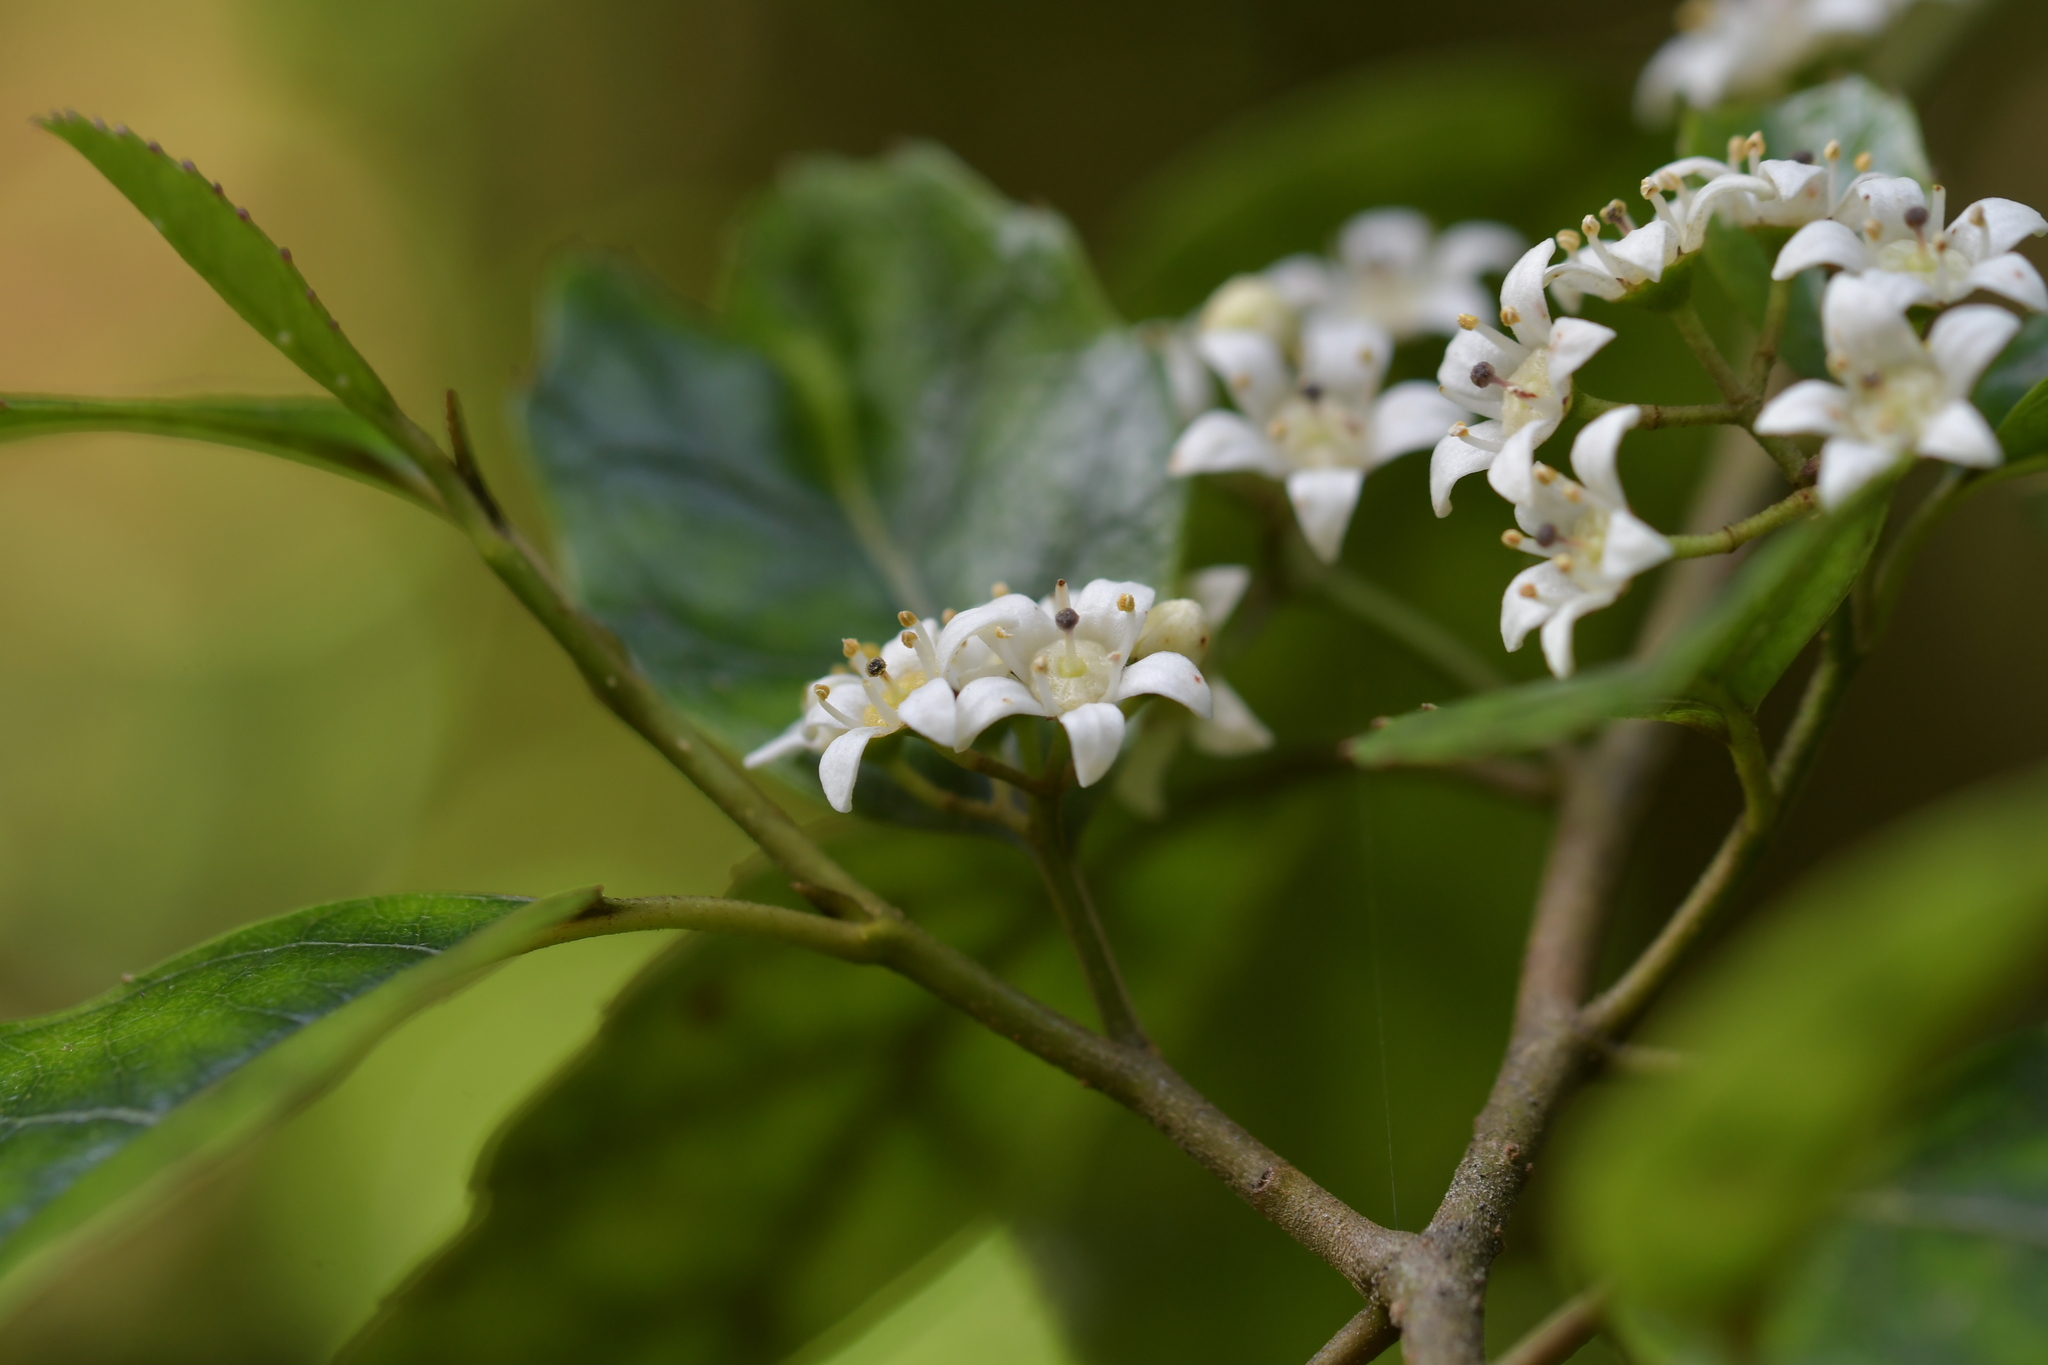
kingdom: Plantae
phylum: Tracheophyta
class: Magnoliopsida
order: Asterales
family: Rousseaceae
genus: Carpodetus
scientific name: Carpodetus serratus
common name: White mapau
